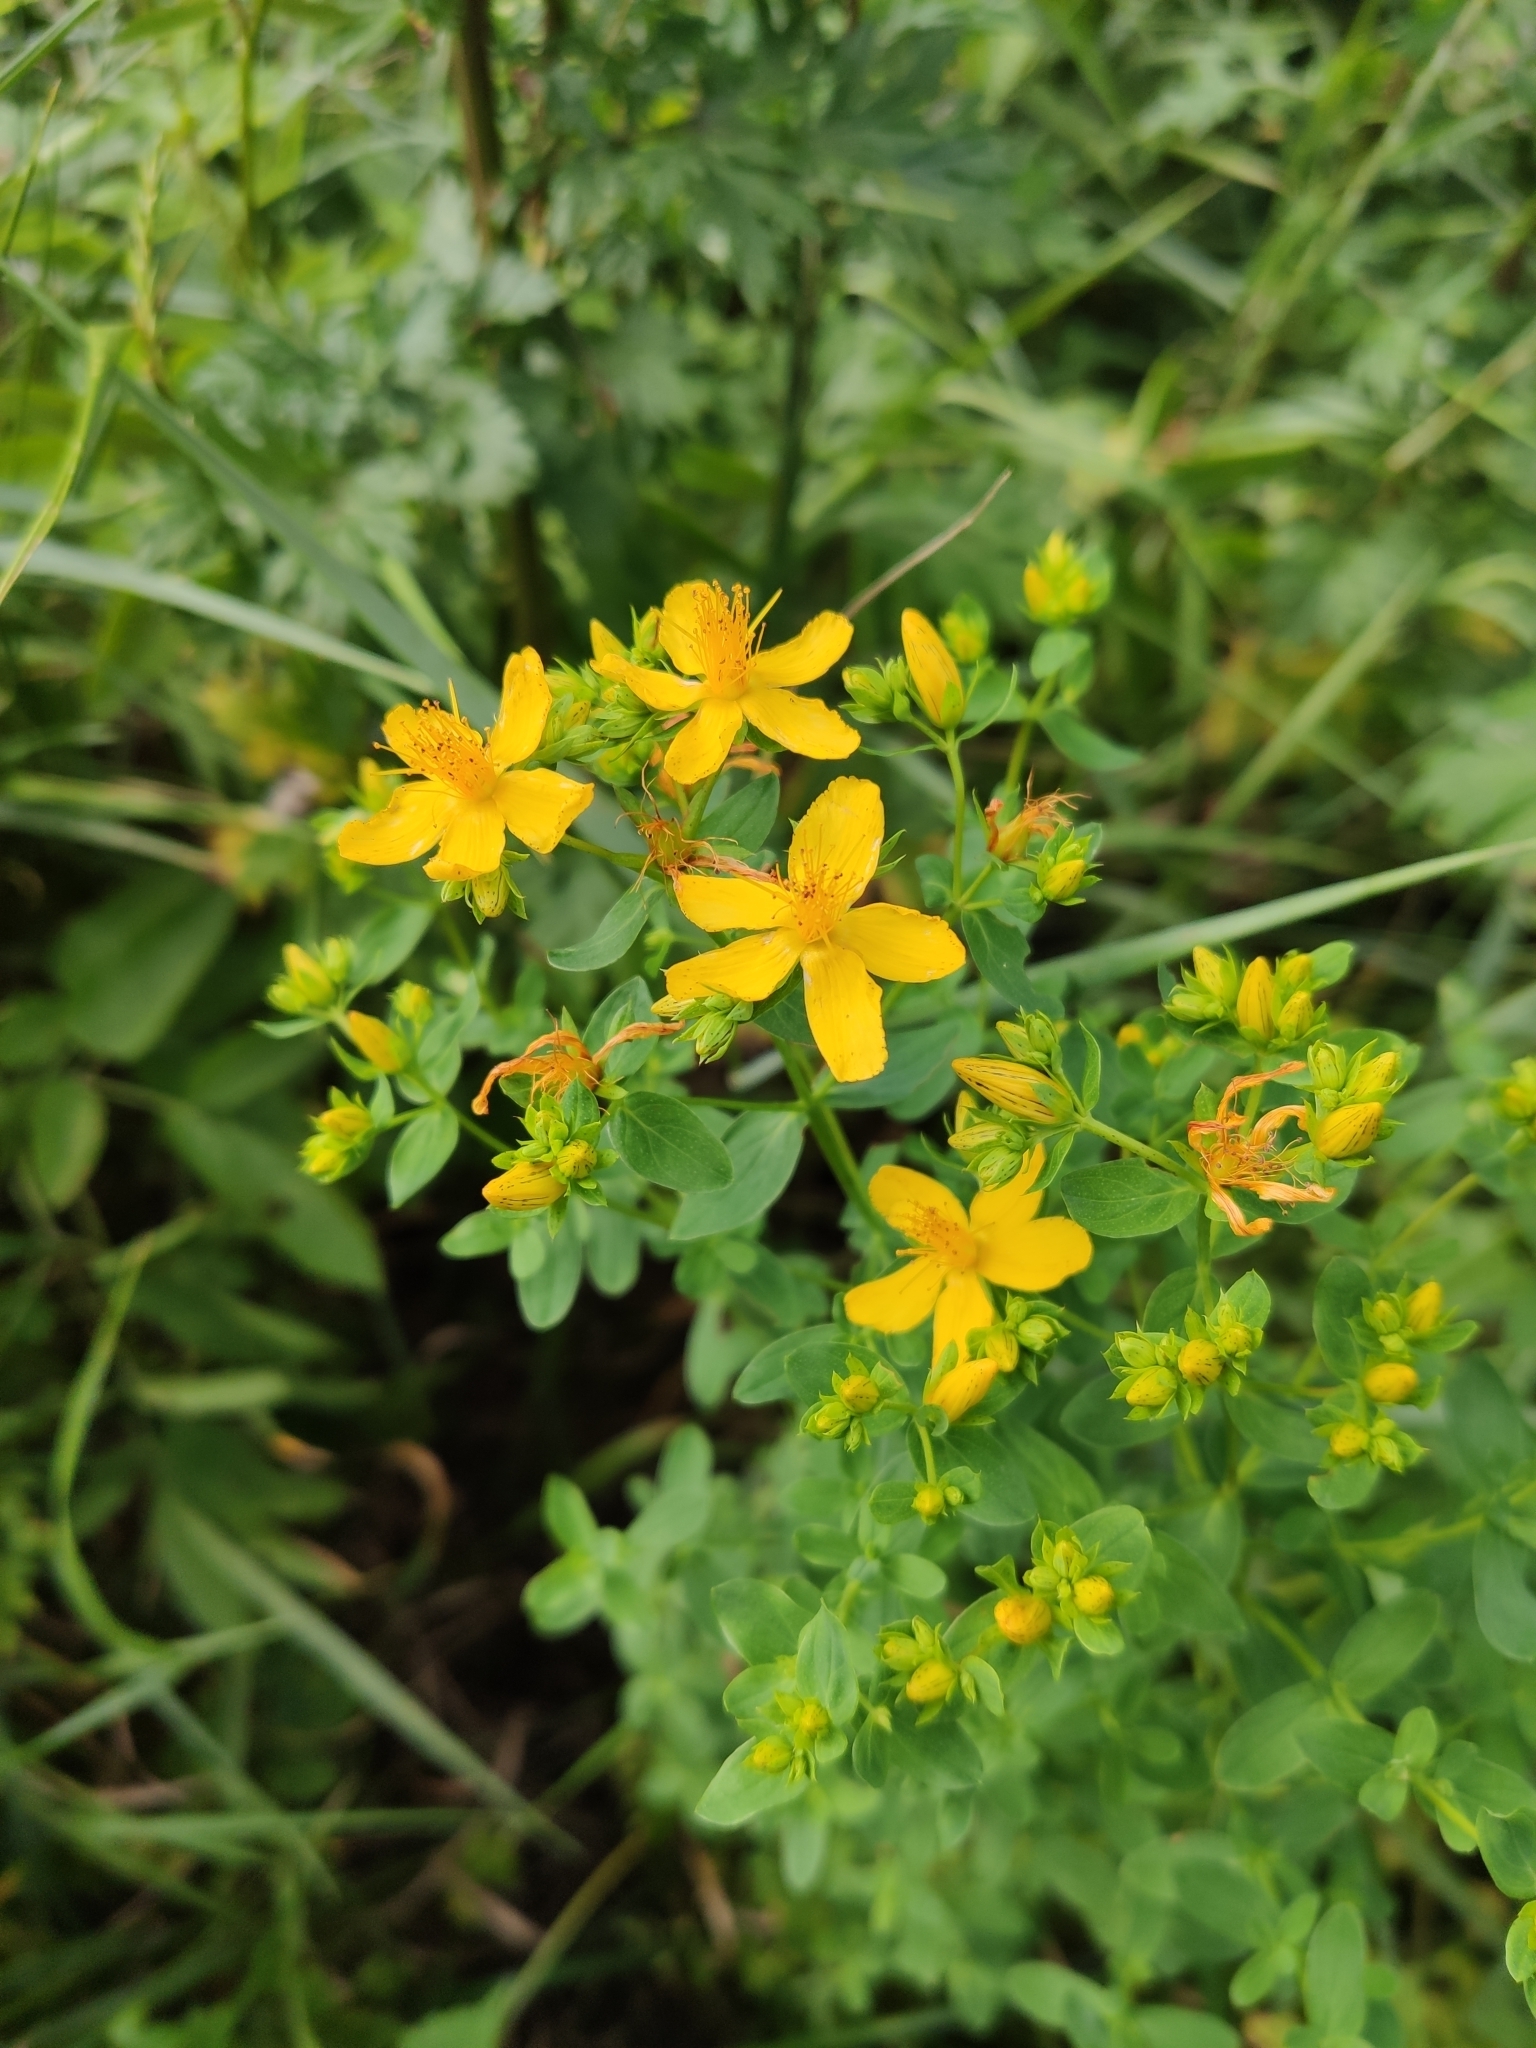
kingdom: Plantae
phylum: Tracheophyta
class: Magnoliopsida
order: Malpighiales
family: Hypericaceae
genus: Hypericum
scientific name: Hypericum perforatum
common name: Common st. johnswort
